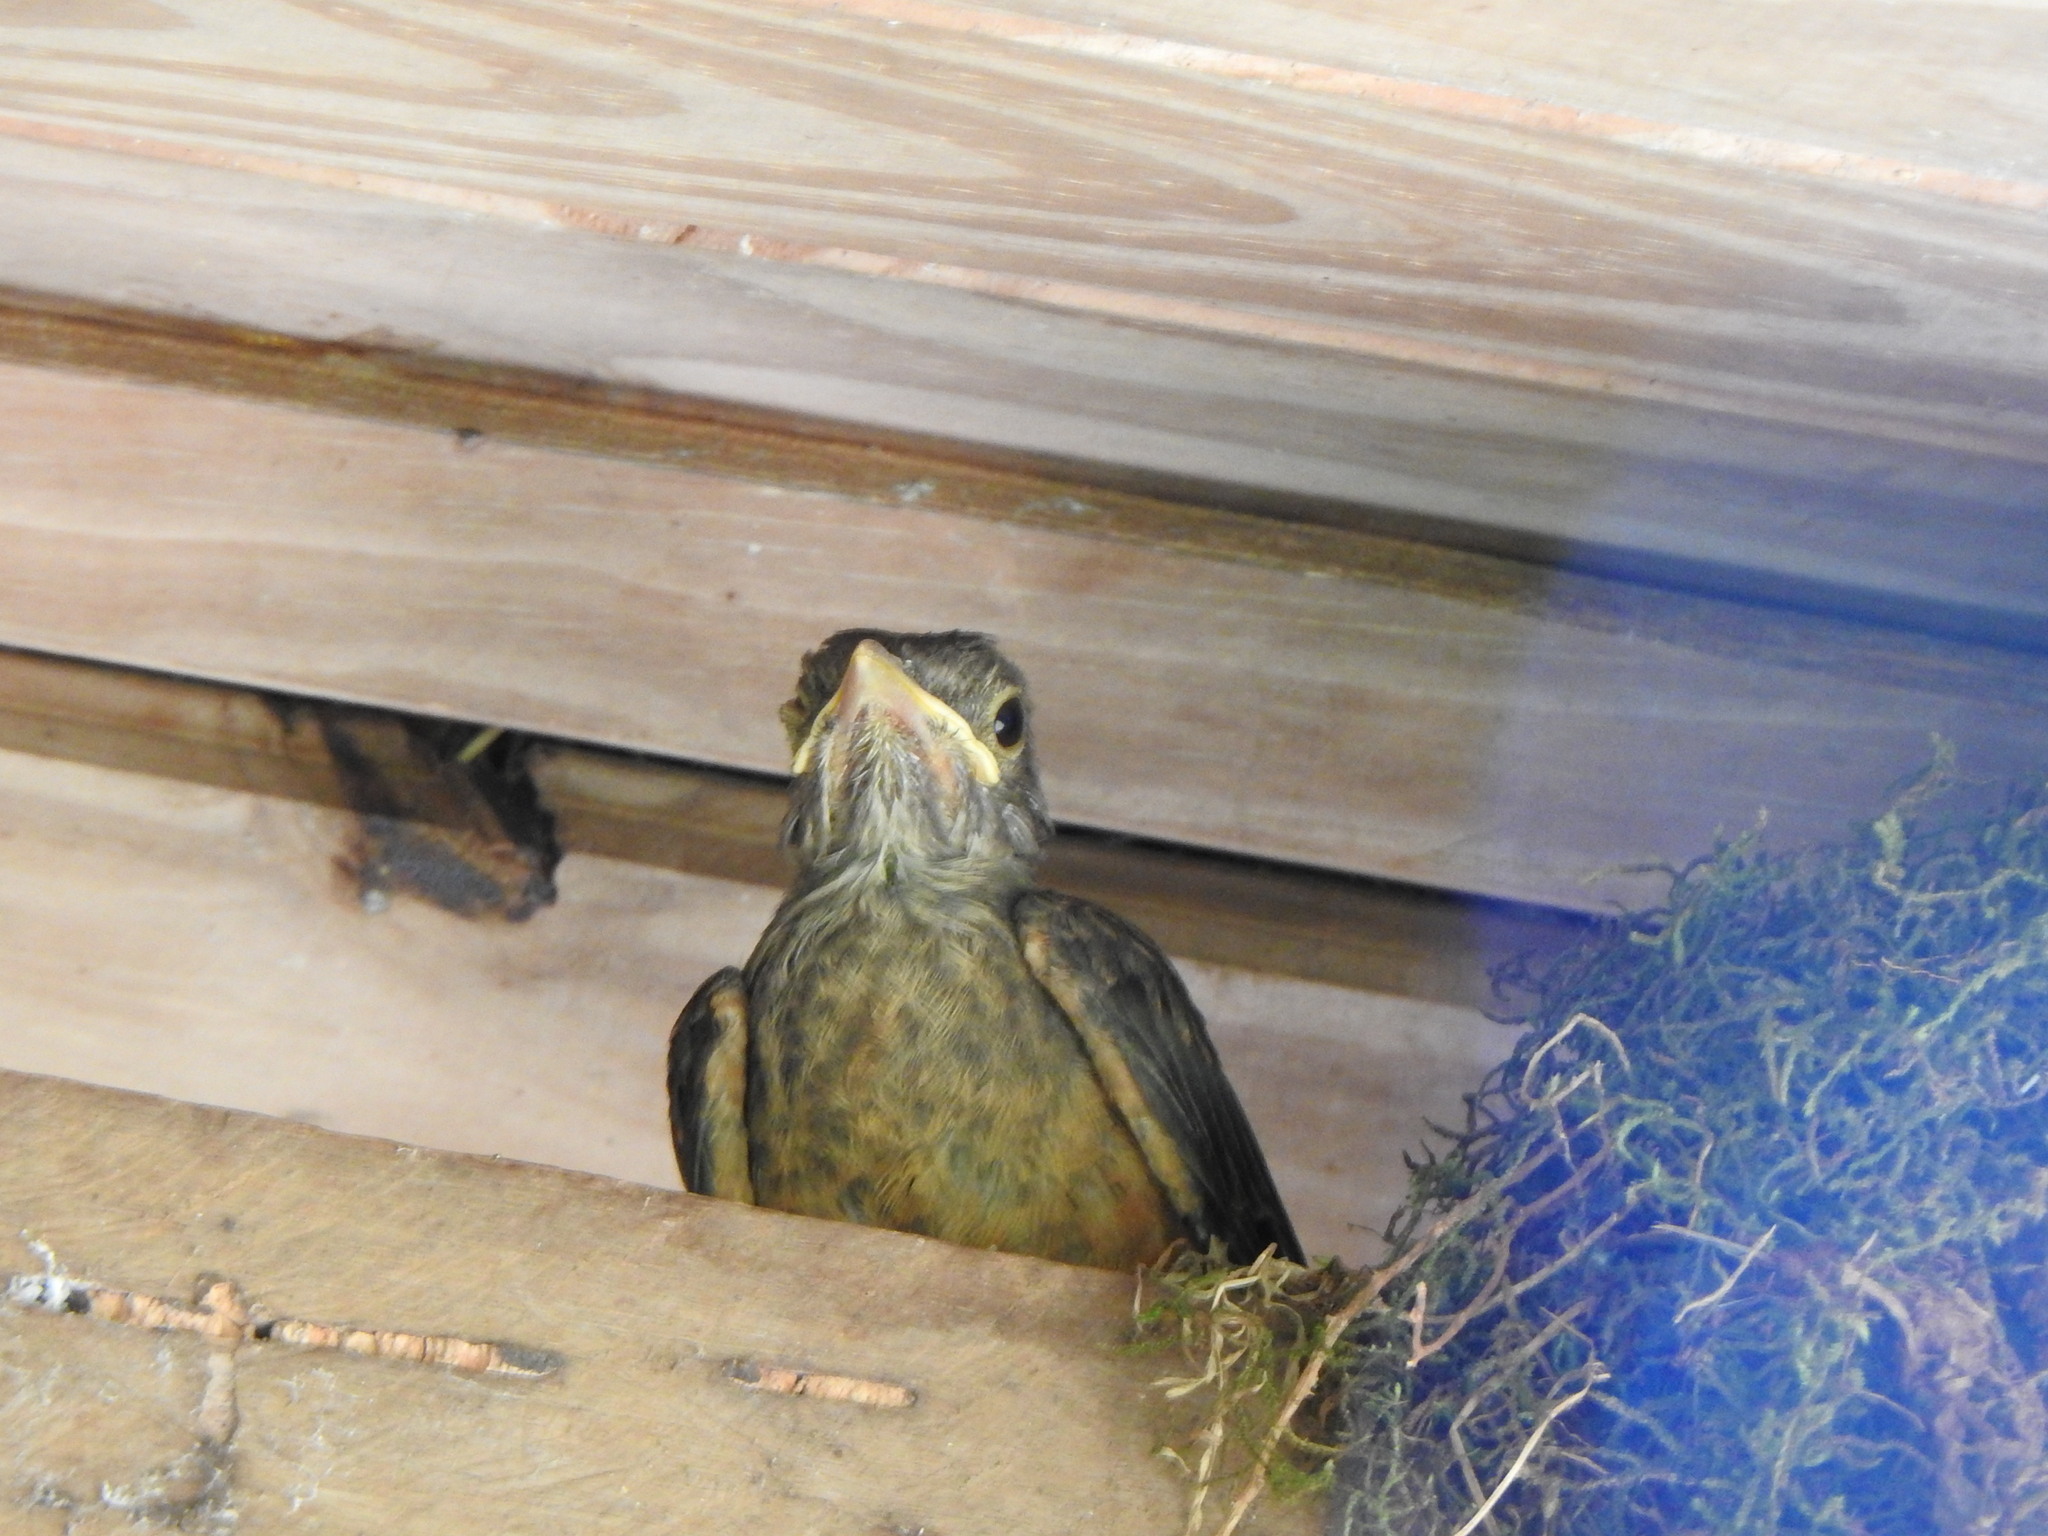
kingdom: Animalia
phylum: Chordata
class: Aves
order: Passeriformes
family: Turdidae
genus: Turdus
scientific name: Turdus rufiventris
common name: Rufous-bellied thrush
